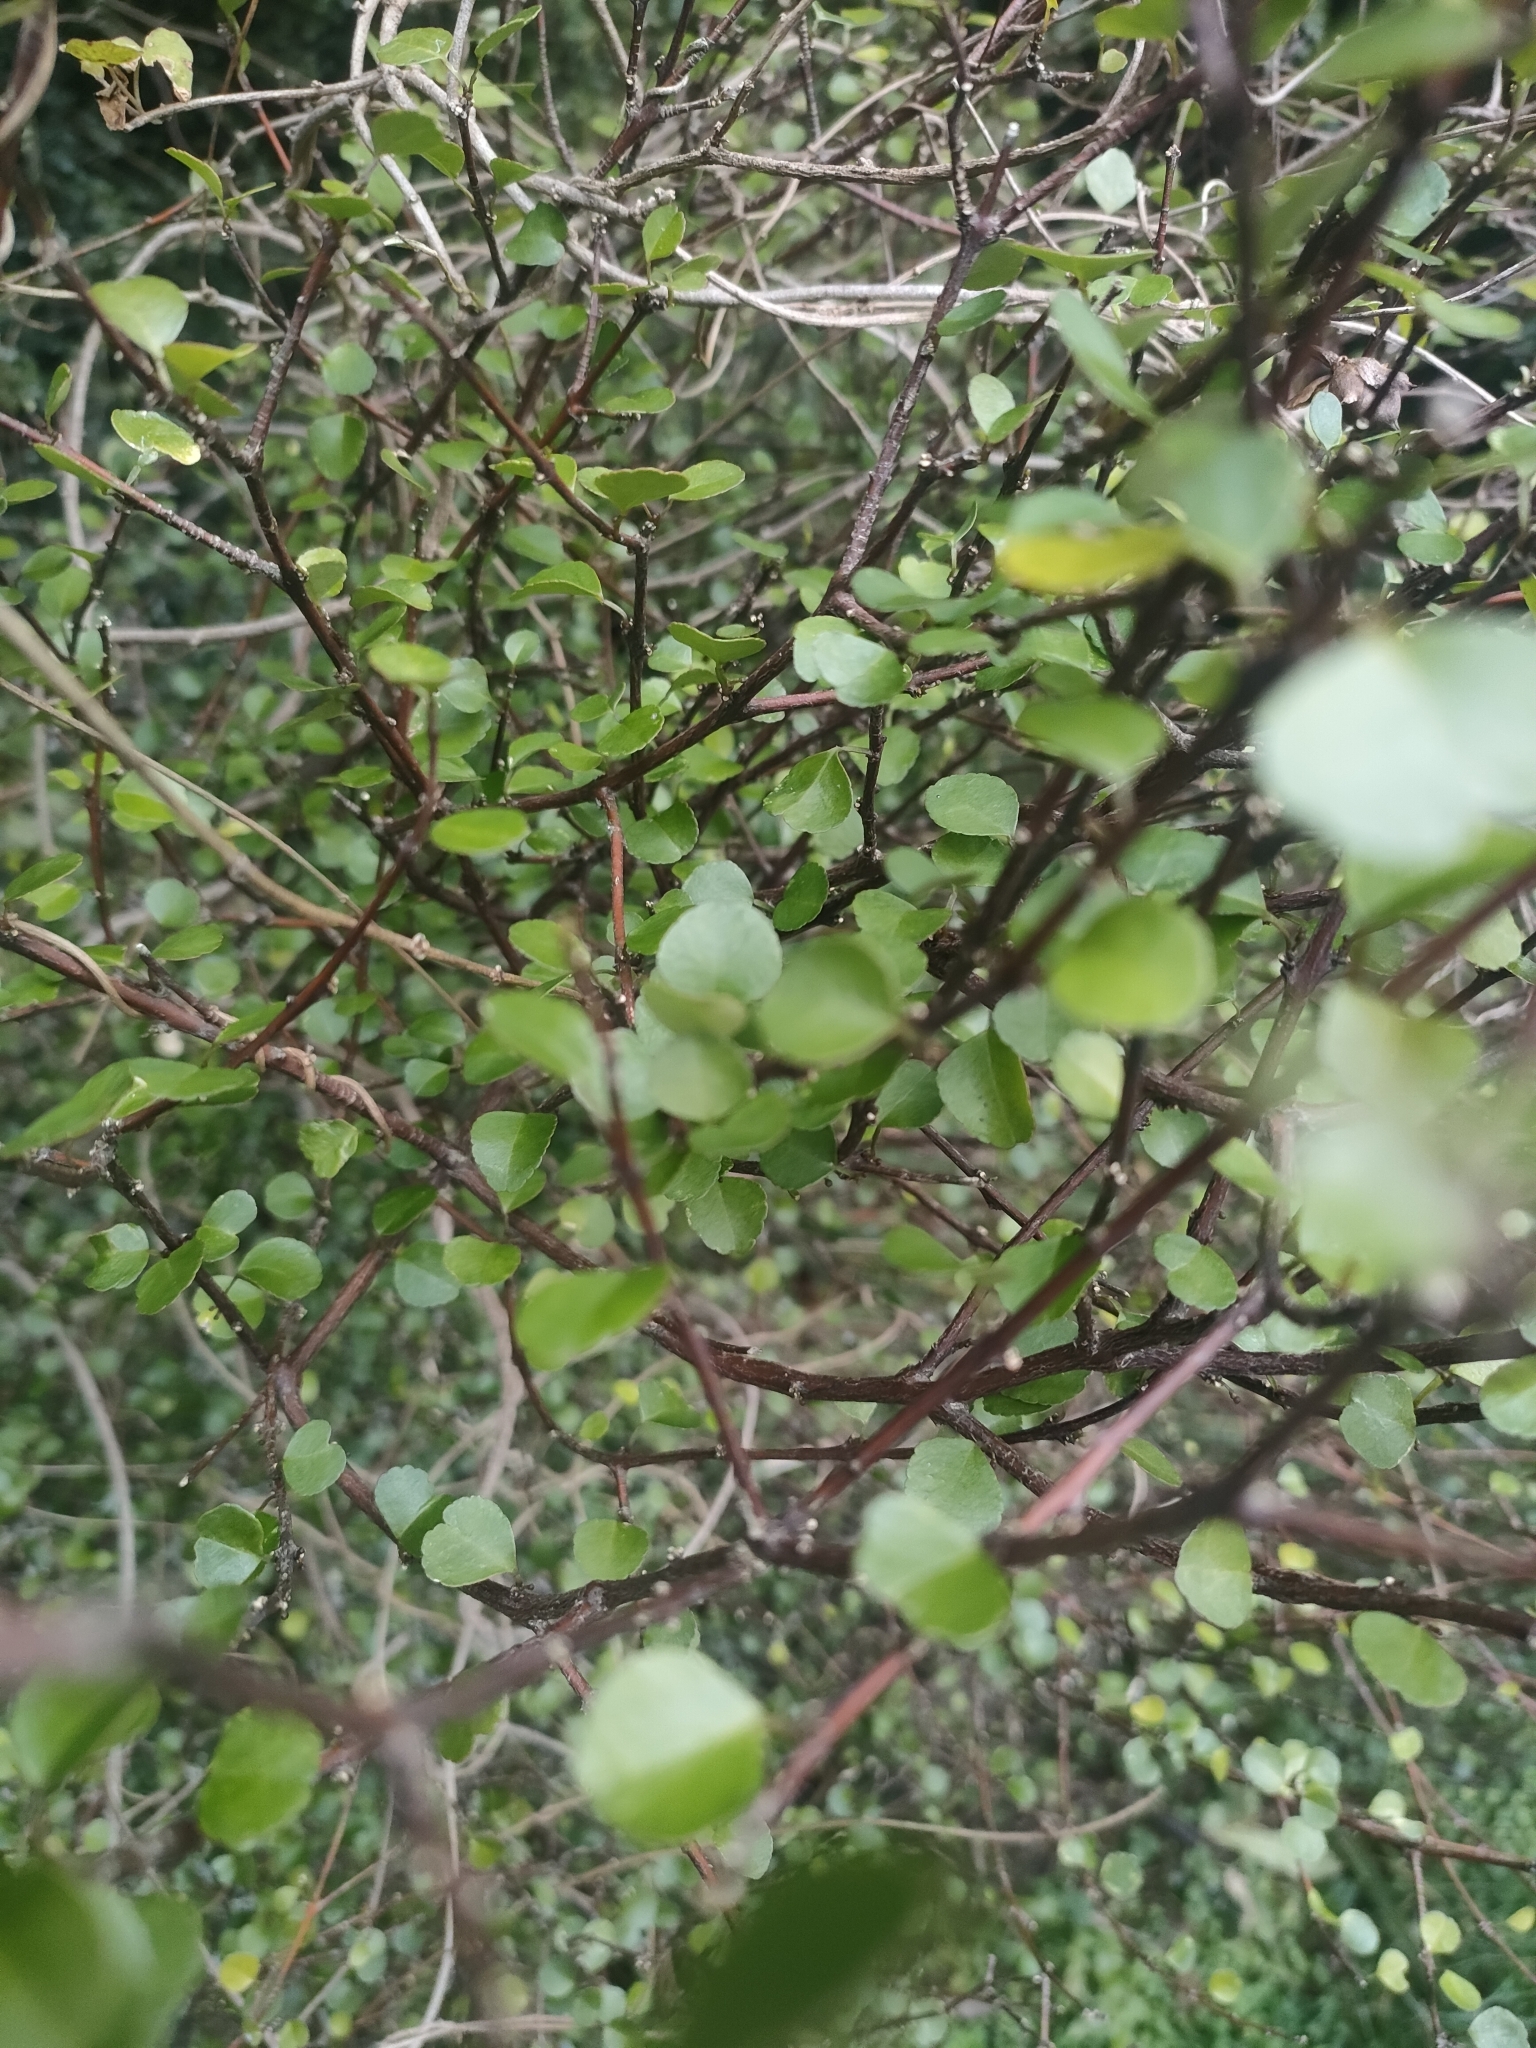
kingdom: Plantae
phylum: Tracheophyta
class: Magnoliopsida
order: Sapindales
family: Rutaceae
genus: Melicope
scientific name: Melicope simplex
